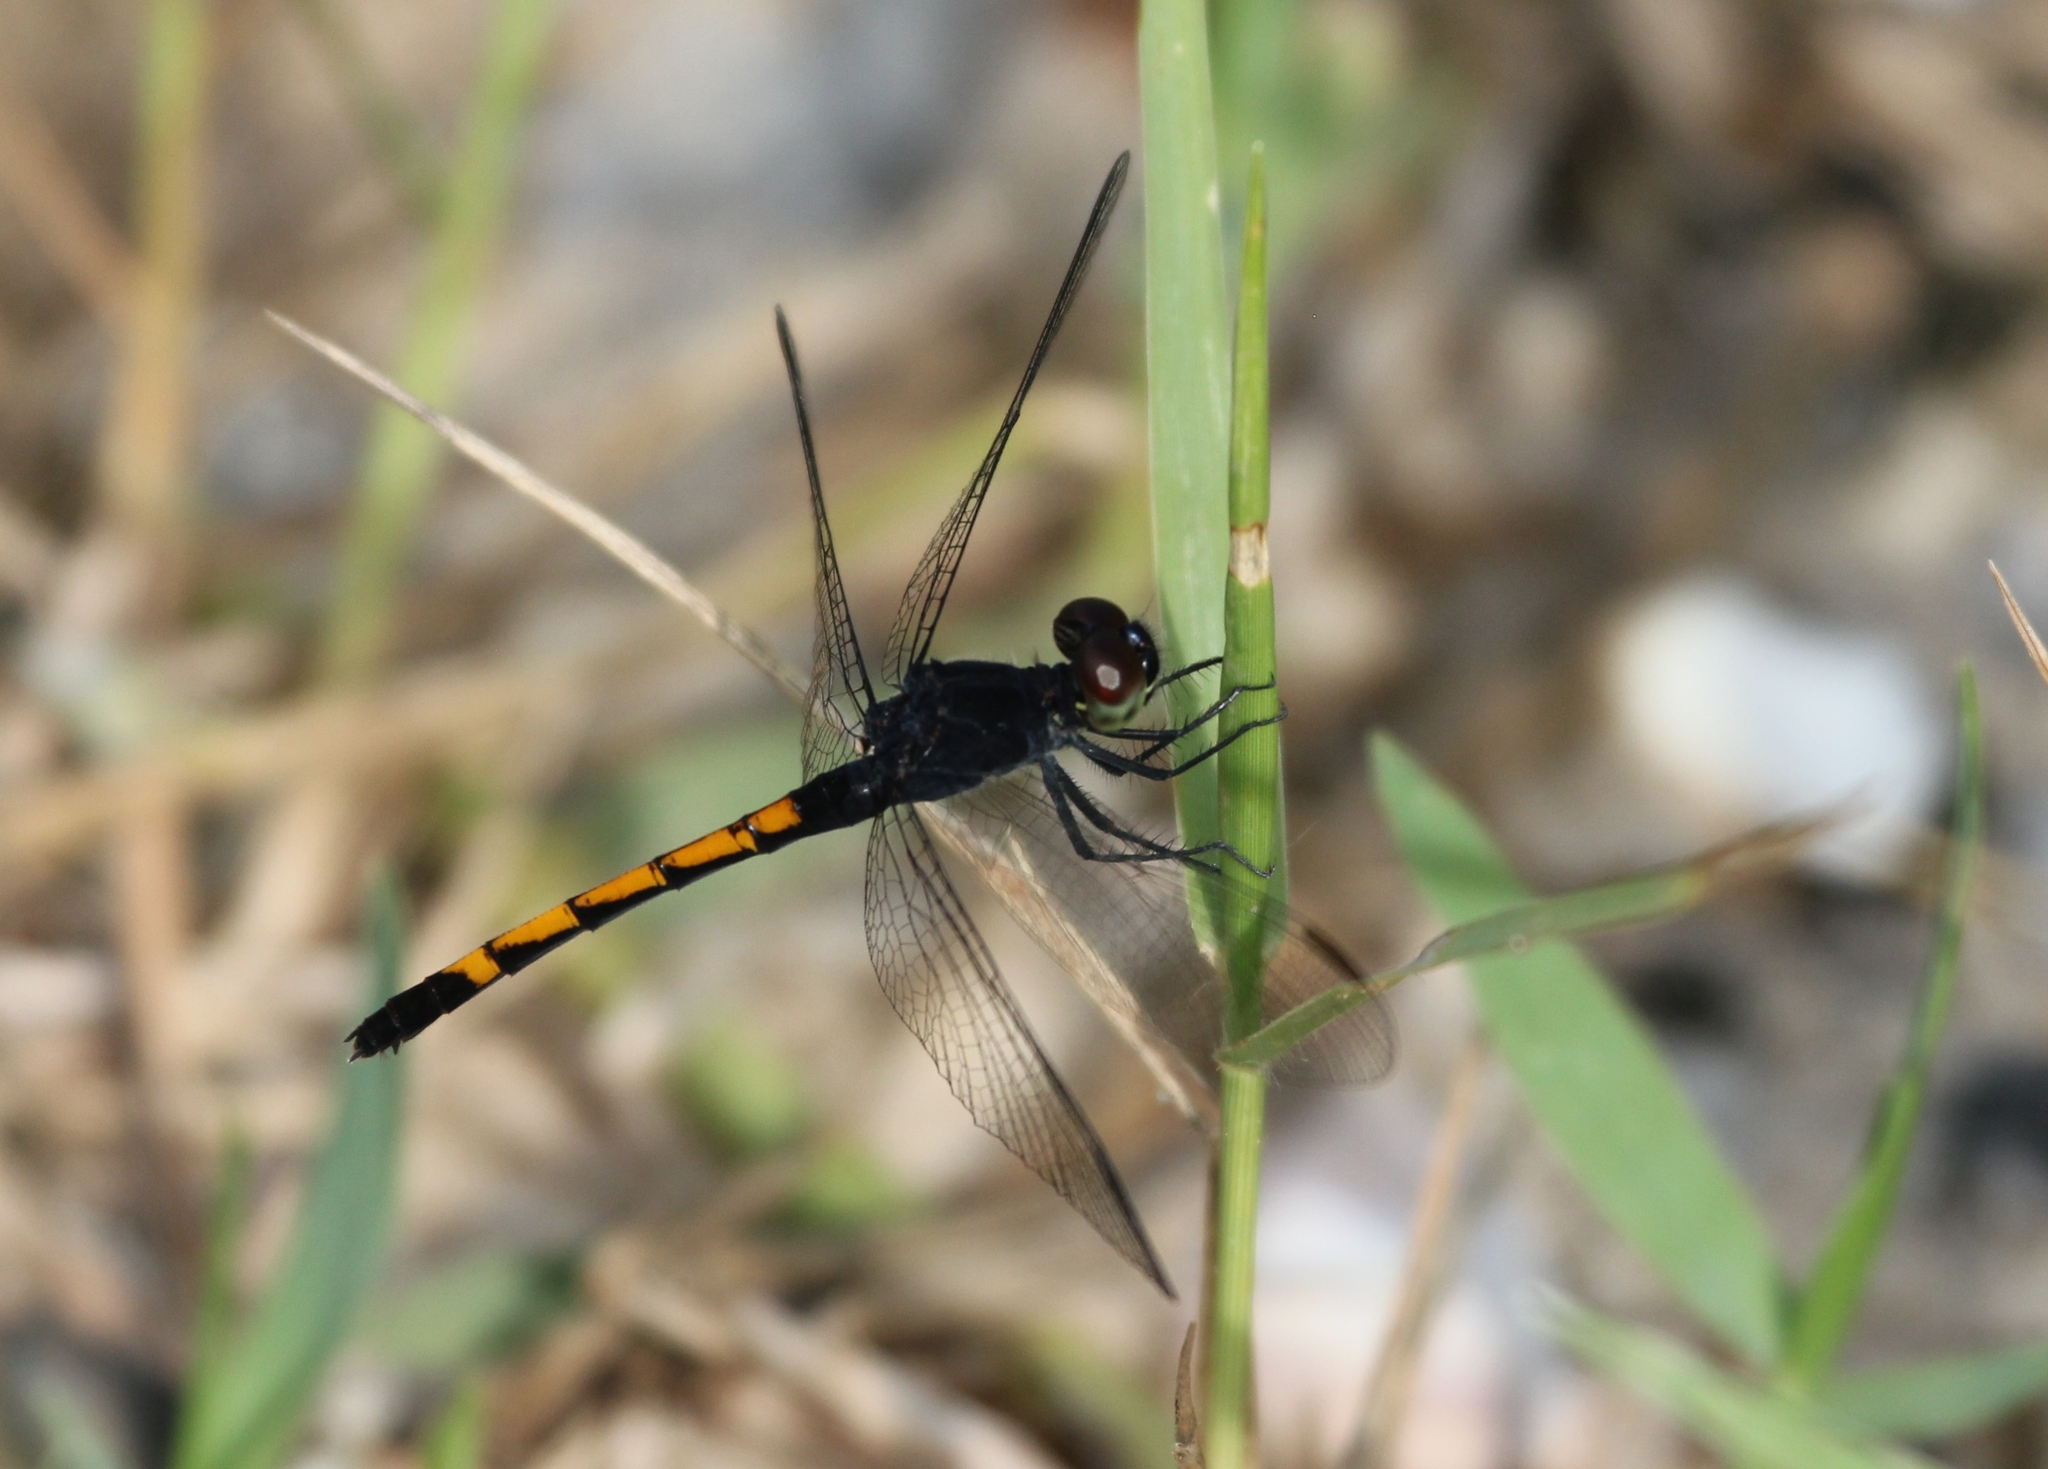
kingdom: Animalia
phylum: Arthropoda
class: Insecta
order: Odonata
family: Libellulidae
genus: Erythrodiplax
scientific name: Erythrodiplax berenice
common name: Seaside dragonlet
